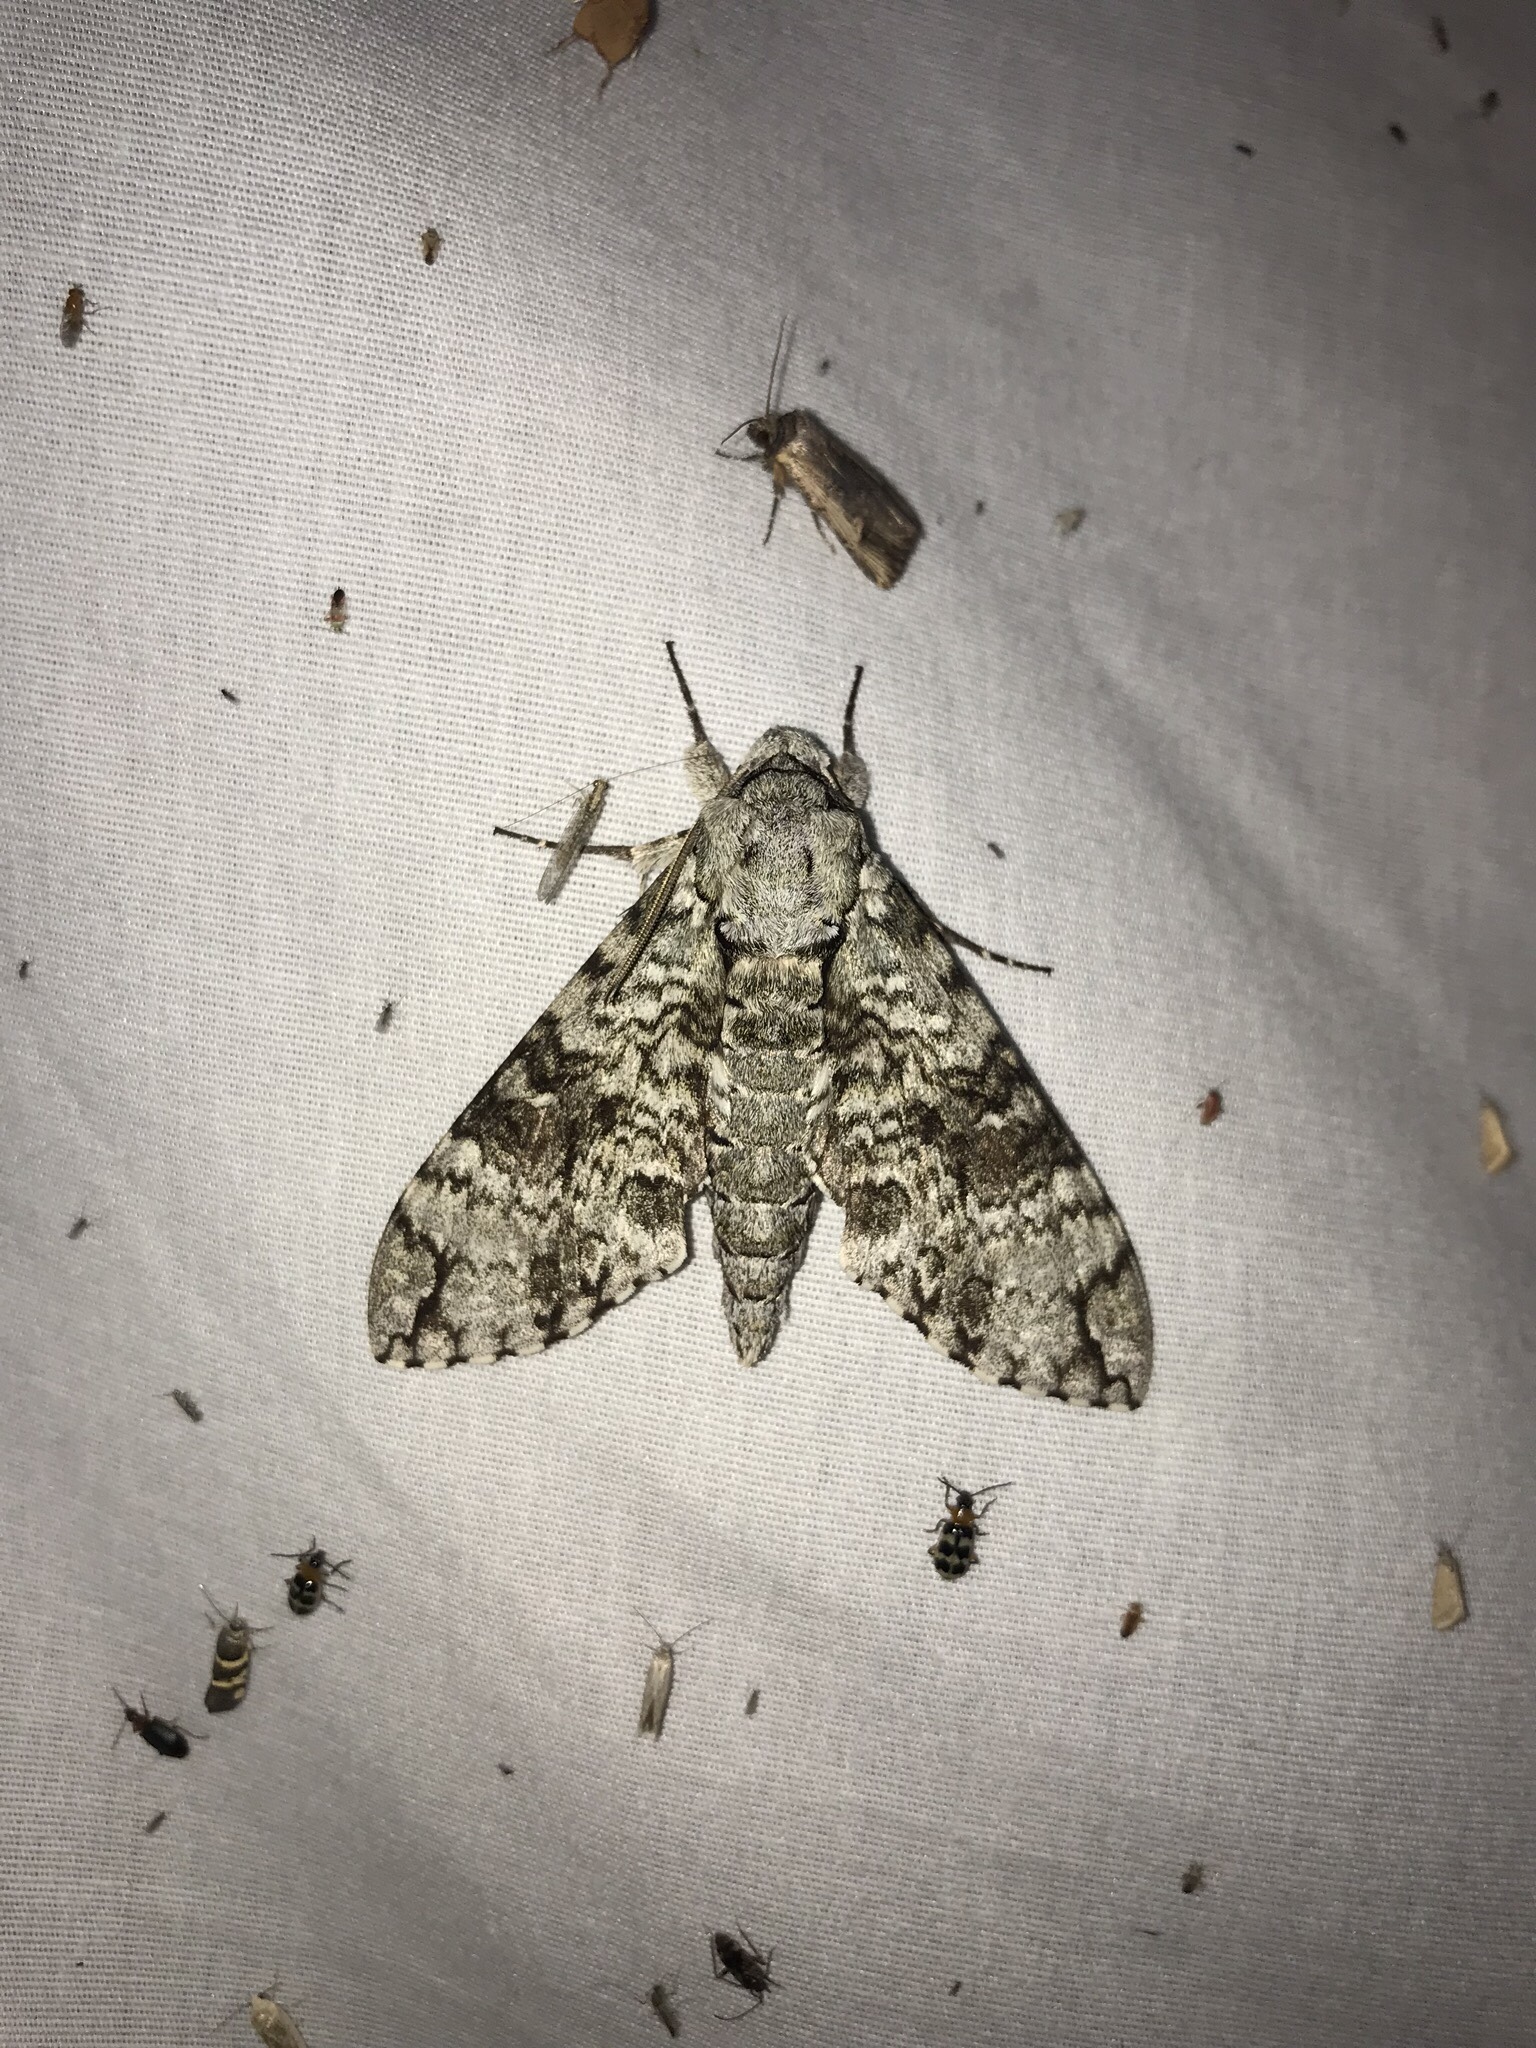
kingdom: Animalia
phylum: Arthropoda
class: Insecta
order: Lepidoptera
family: Sphingidae
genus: Manduca
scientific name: Manduca florestan
